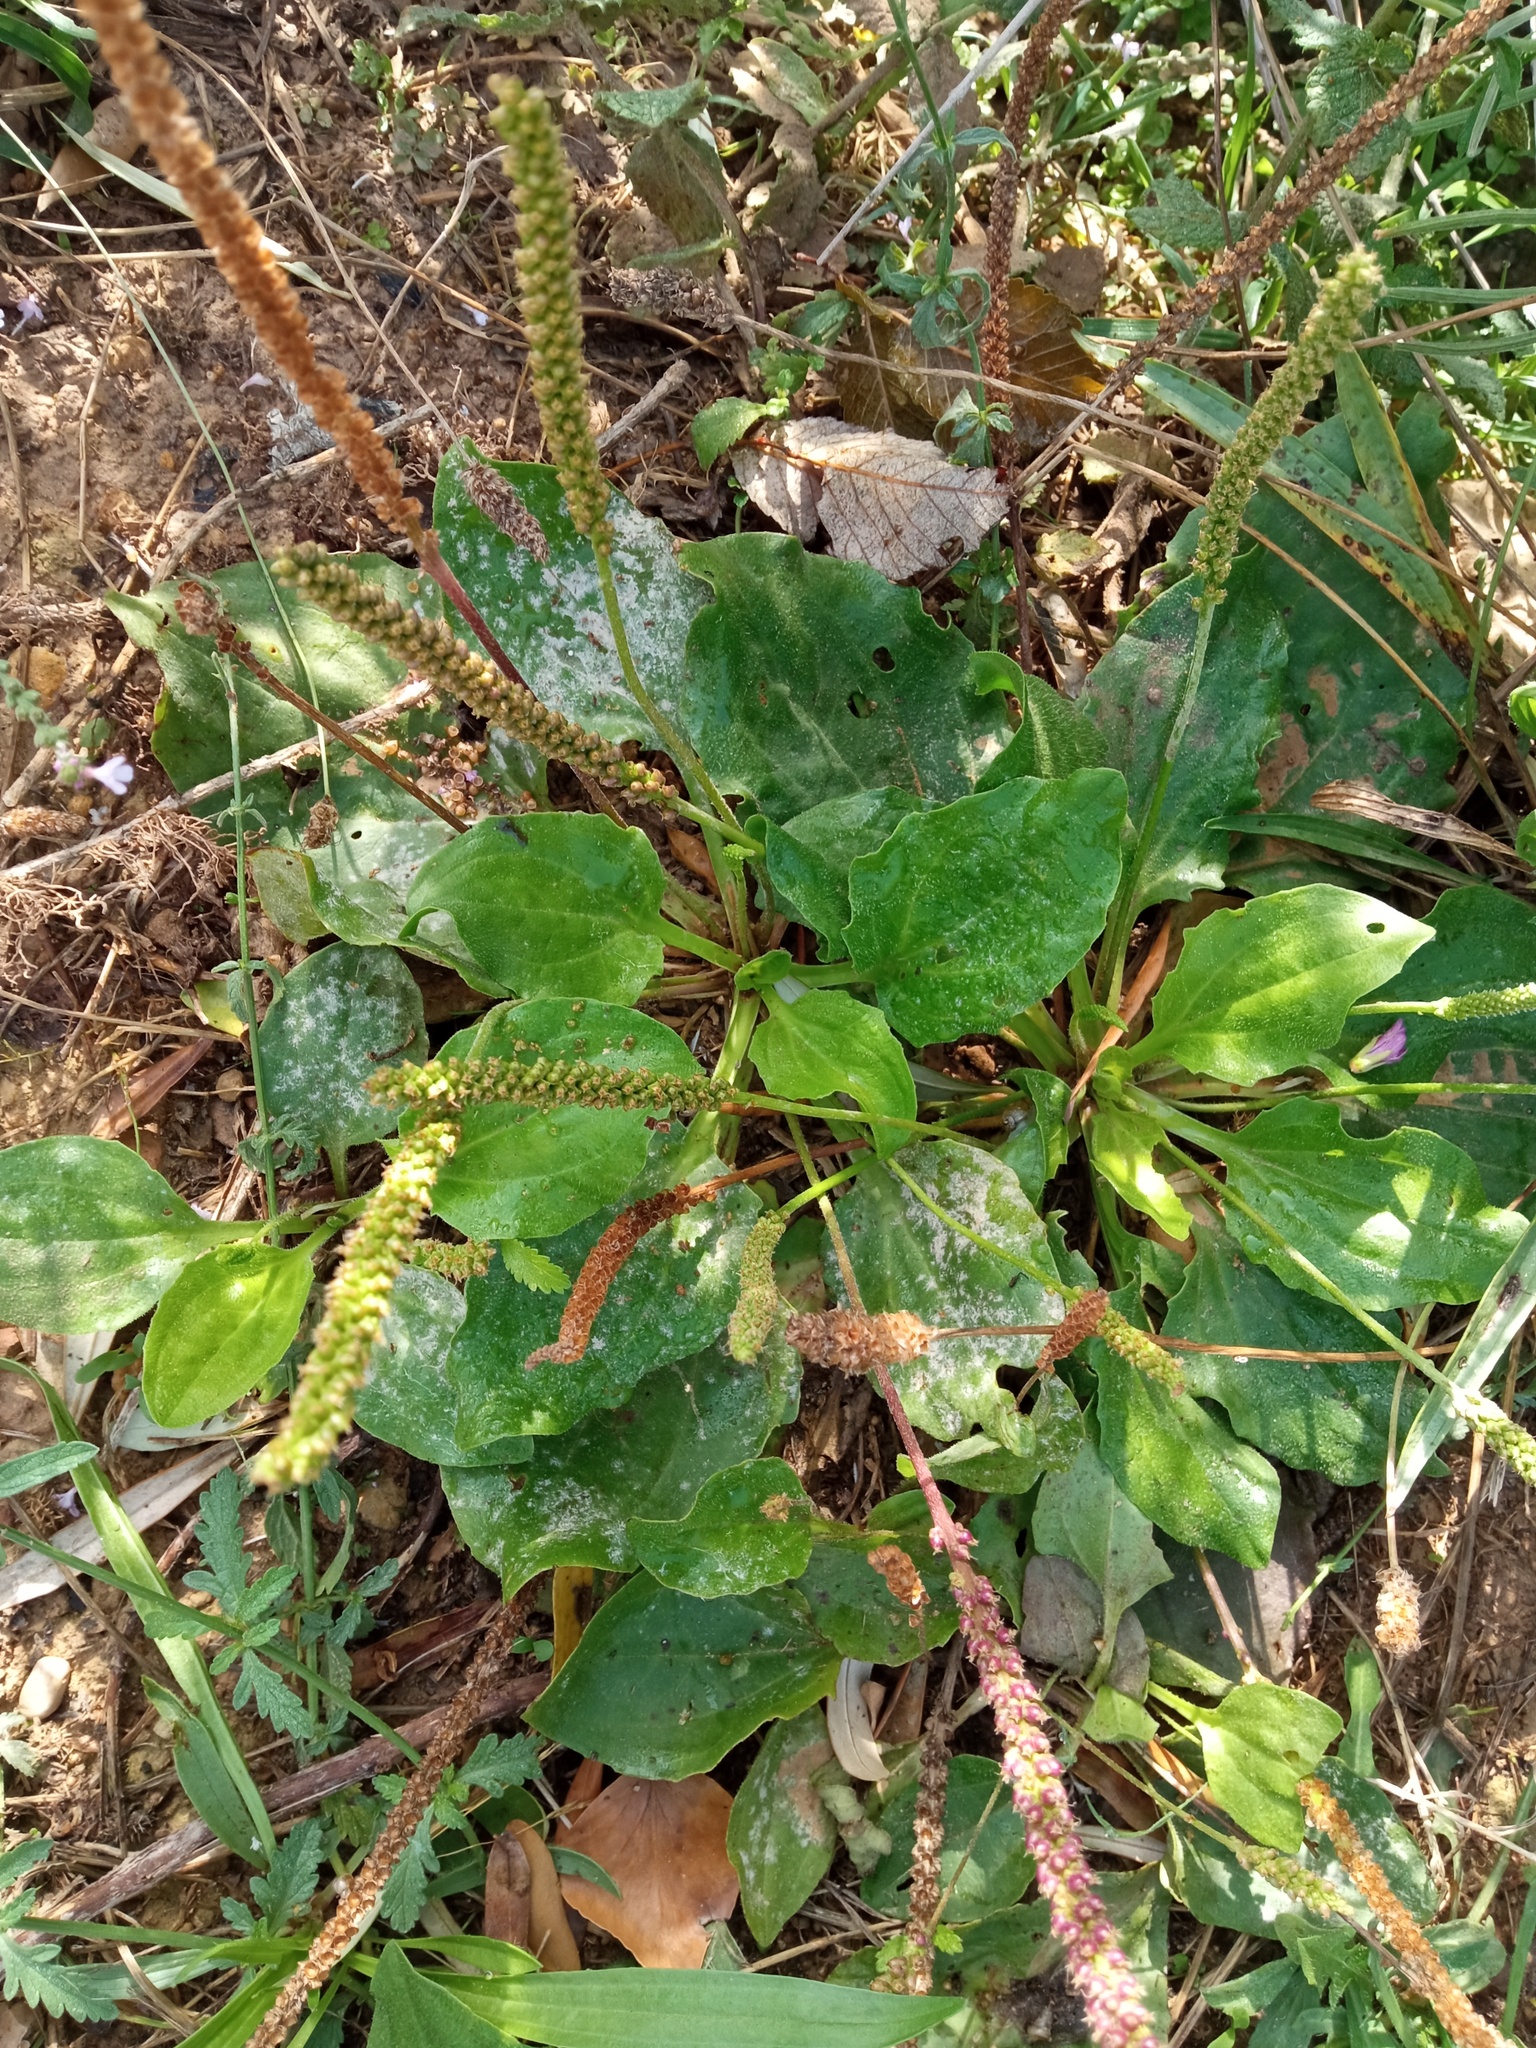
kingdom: Plantae
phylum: Tracheophyta
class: Magnoliopsida
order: Lamiales
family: Plantaginaceae
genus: Plantago
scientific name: Plantago major
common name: Common plantain
